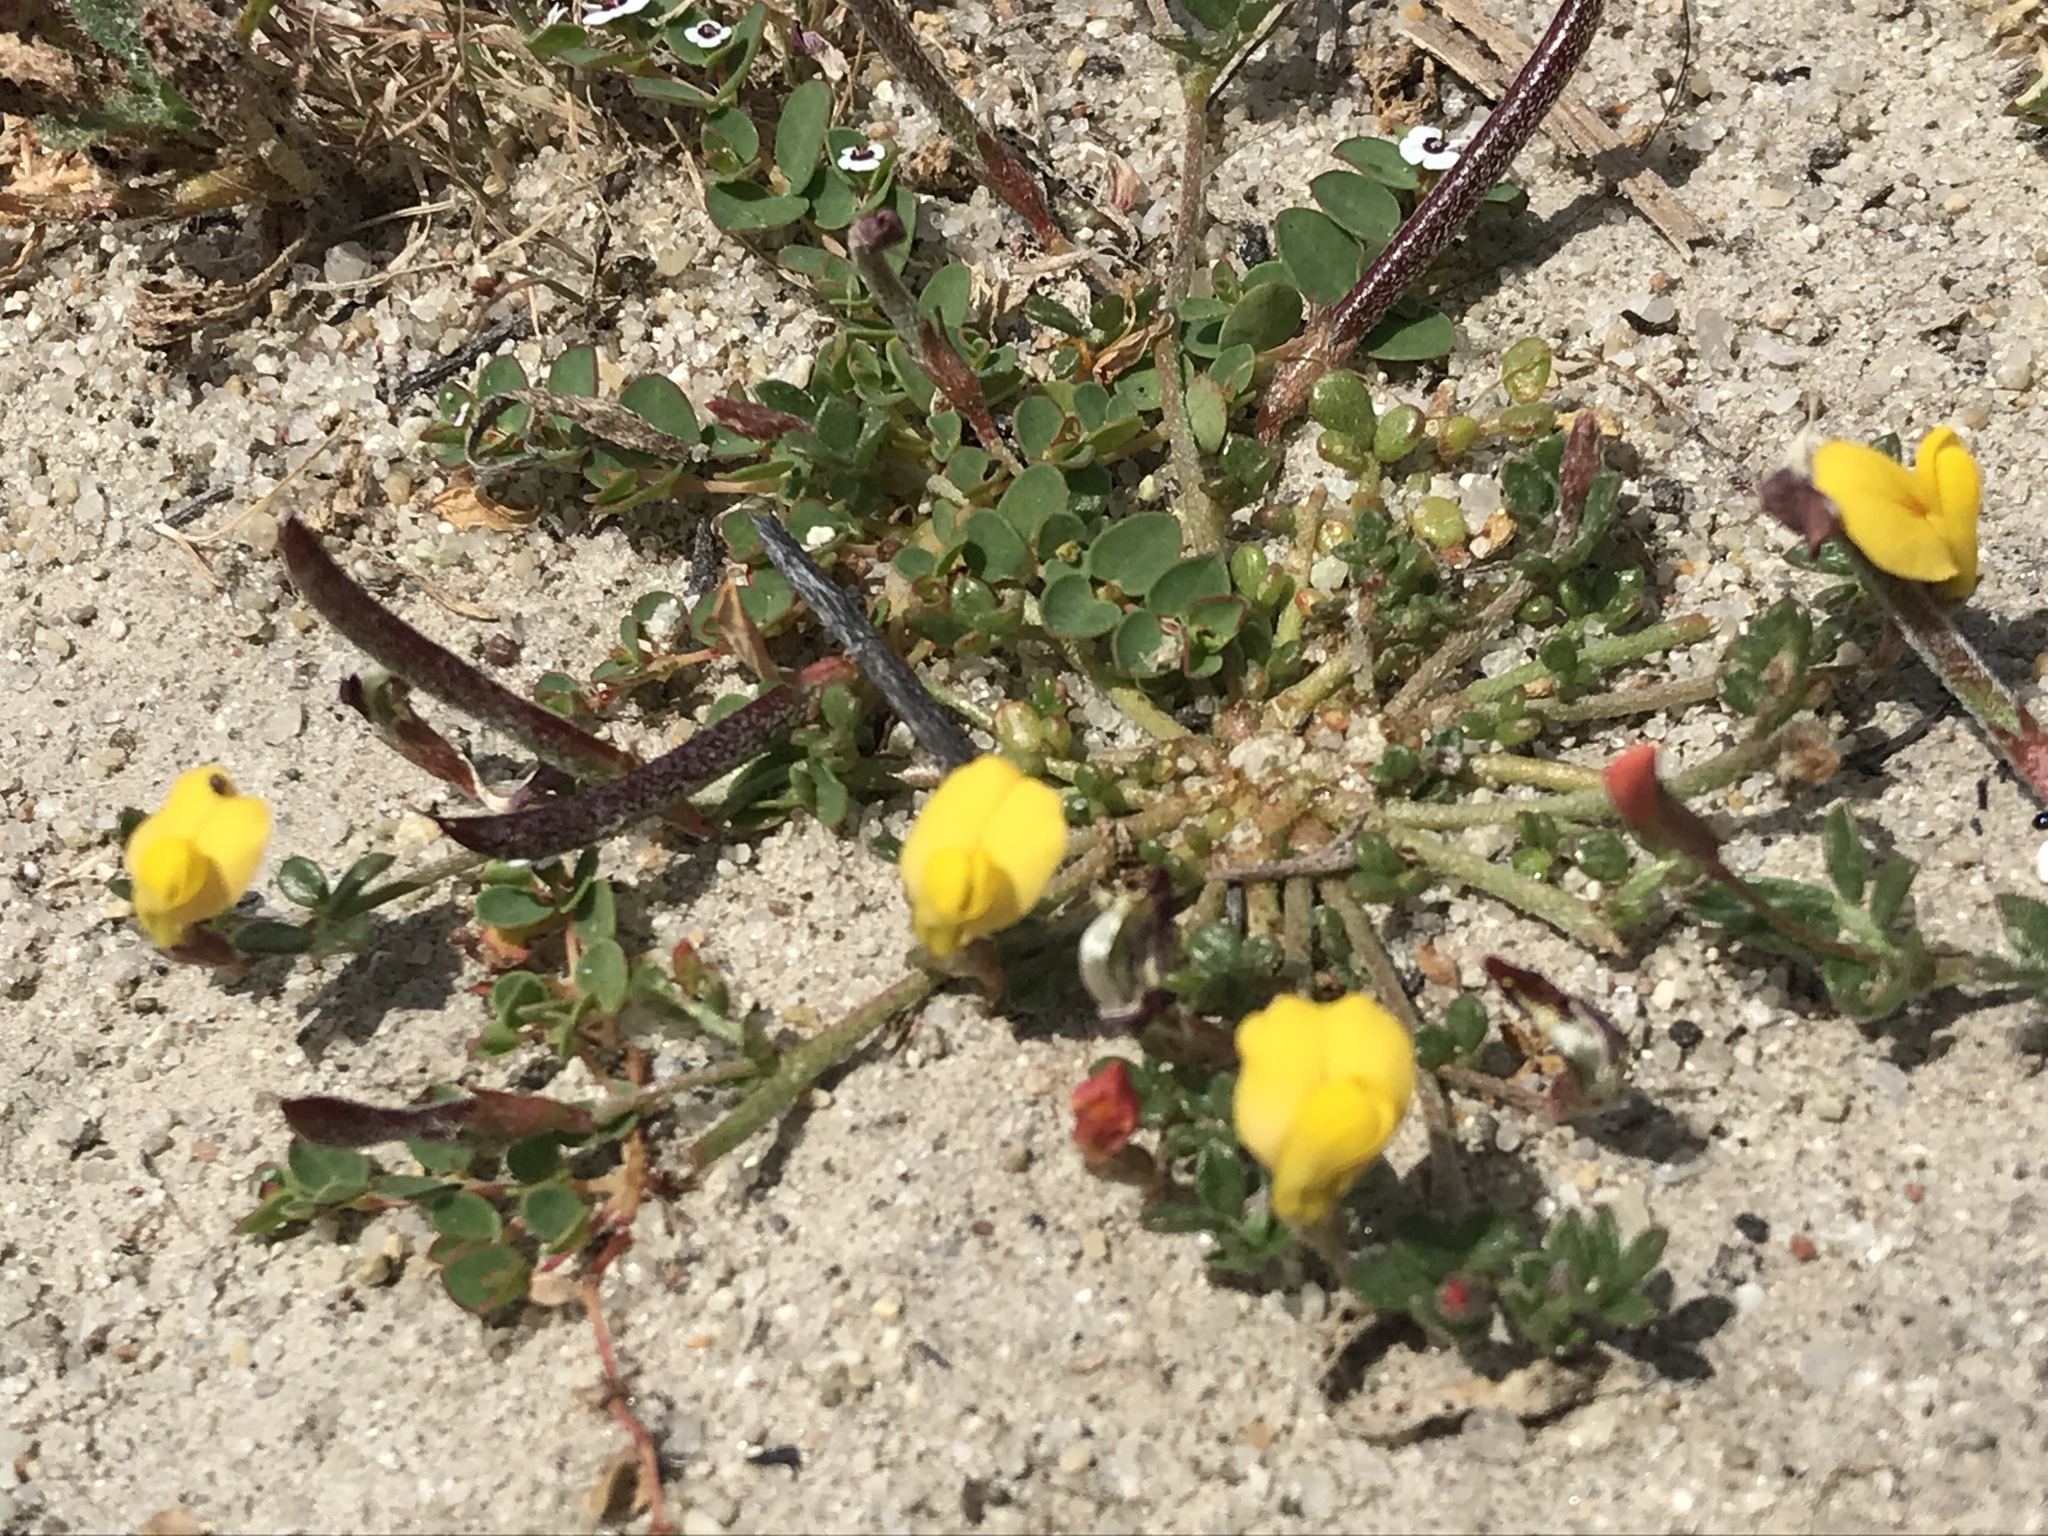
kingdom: Plantae
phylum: Tracheophyta
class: Magnoliopsida
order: Fabales
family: Fabaceae
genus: Acmispon
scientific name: Acmispon strigosus
